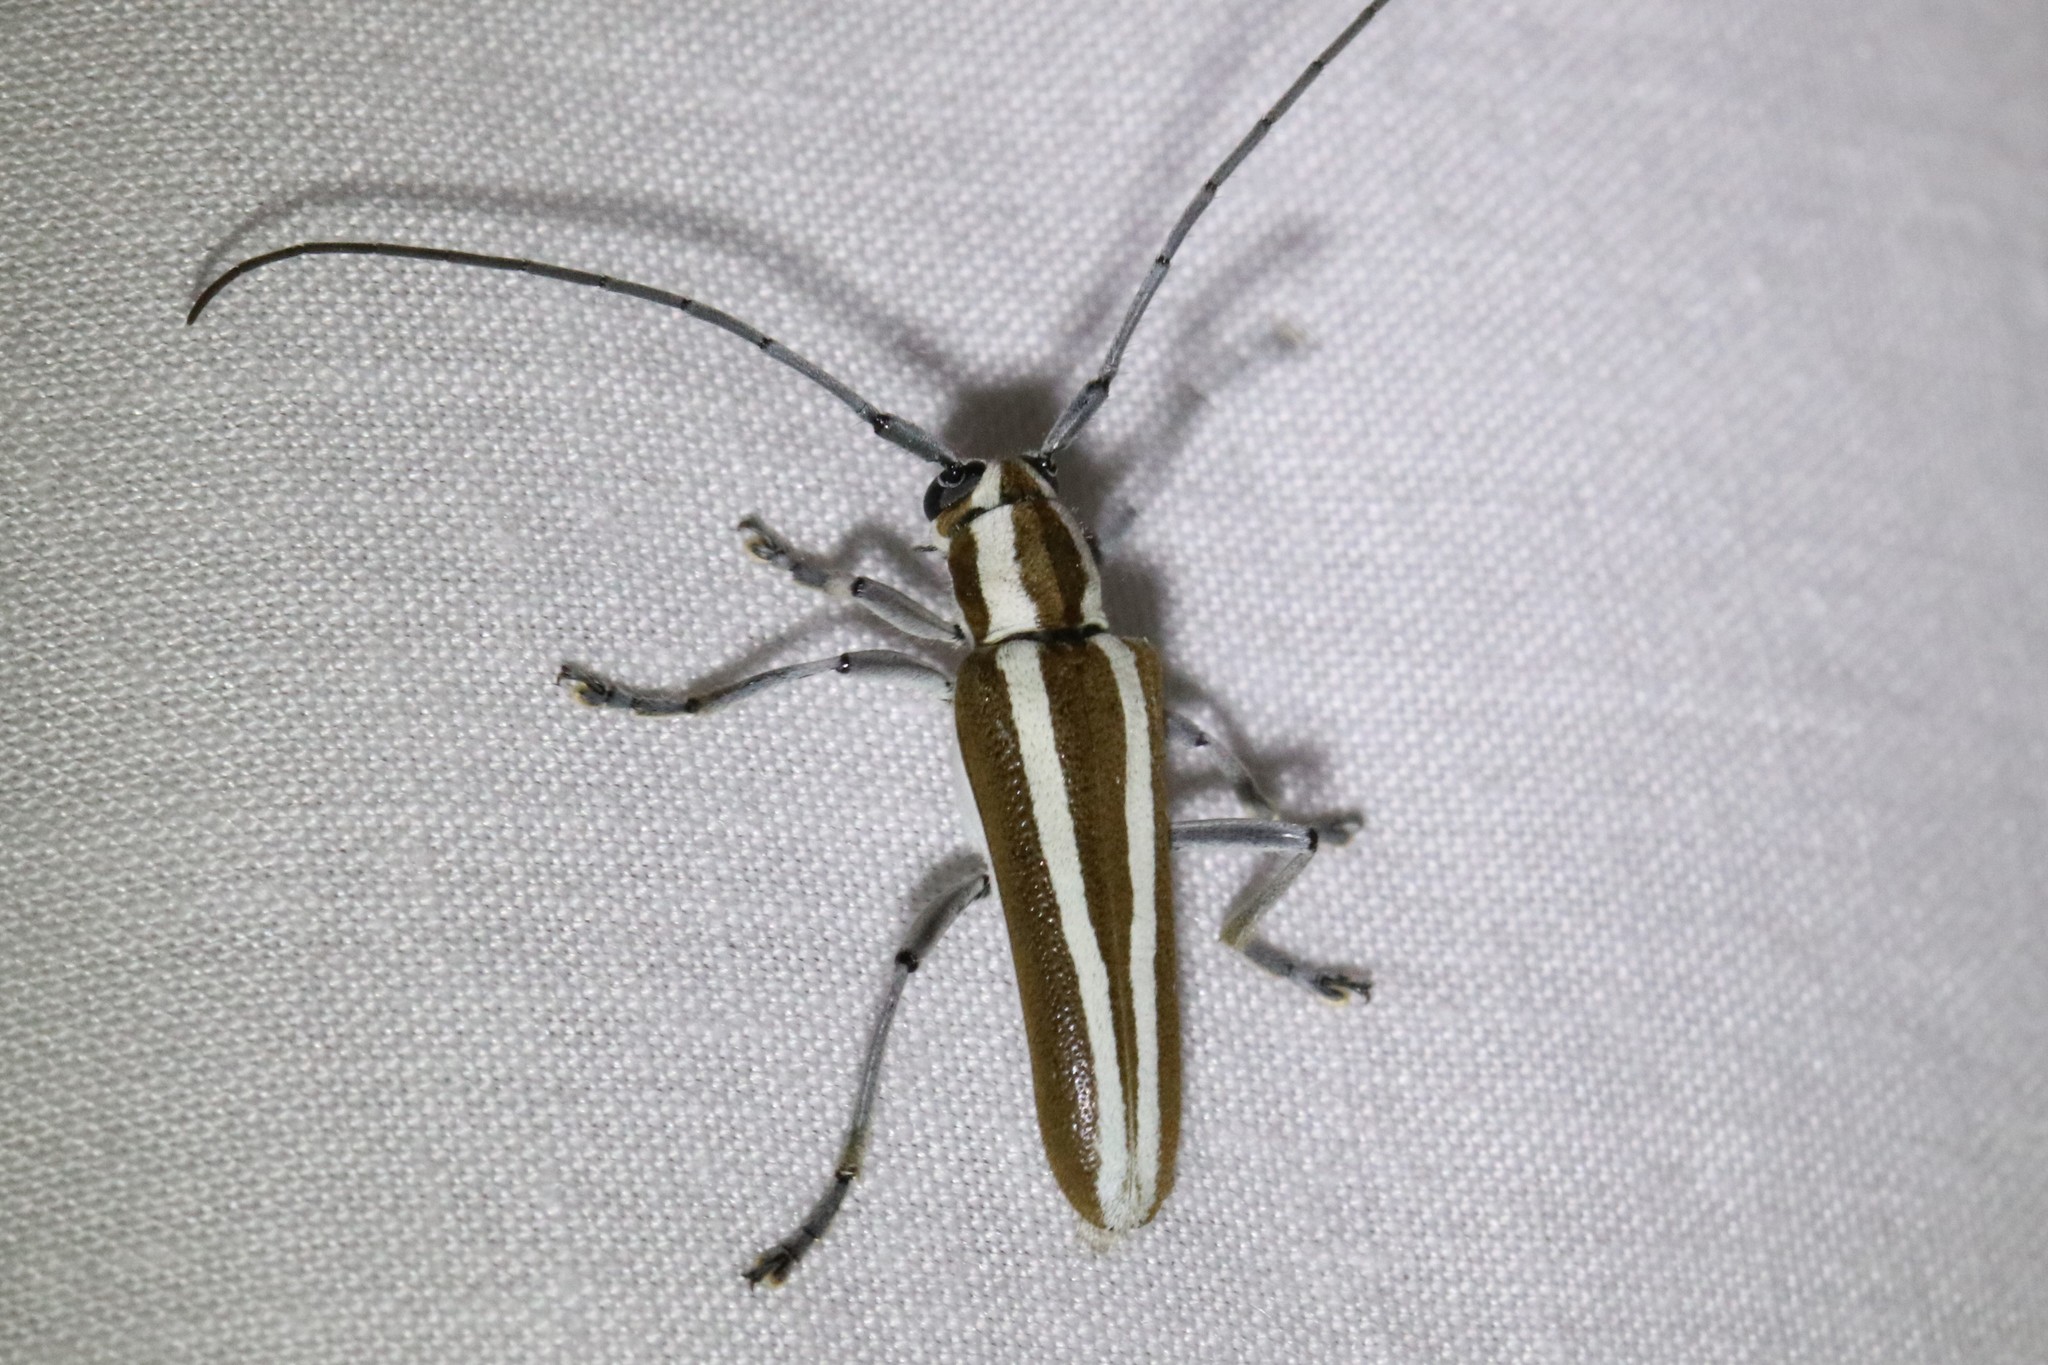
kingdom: Animalia
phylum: Arthropoda
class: Insecta
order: Coleoptera
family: Cerambycidae
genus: Saperda
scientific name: Saperda candida
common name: Round-headed borer
